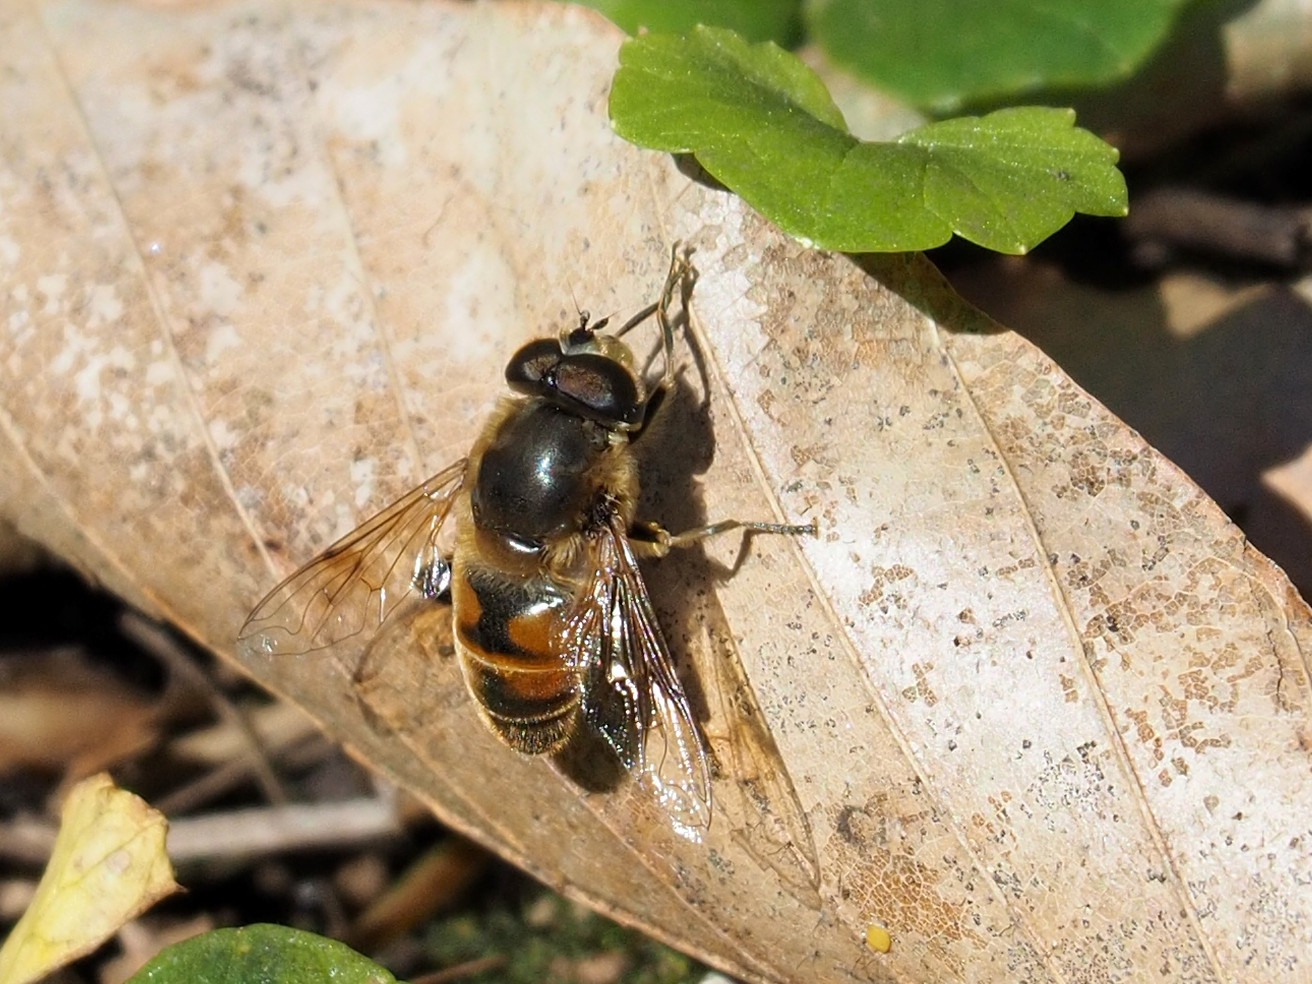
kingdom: Animalia
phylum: Arthropoda
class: Insecta
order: Diptera
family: Syrphidae
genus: Eristalis
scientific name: Eristalis tenax
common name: Drone fly
